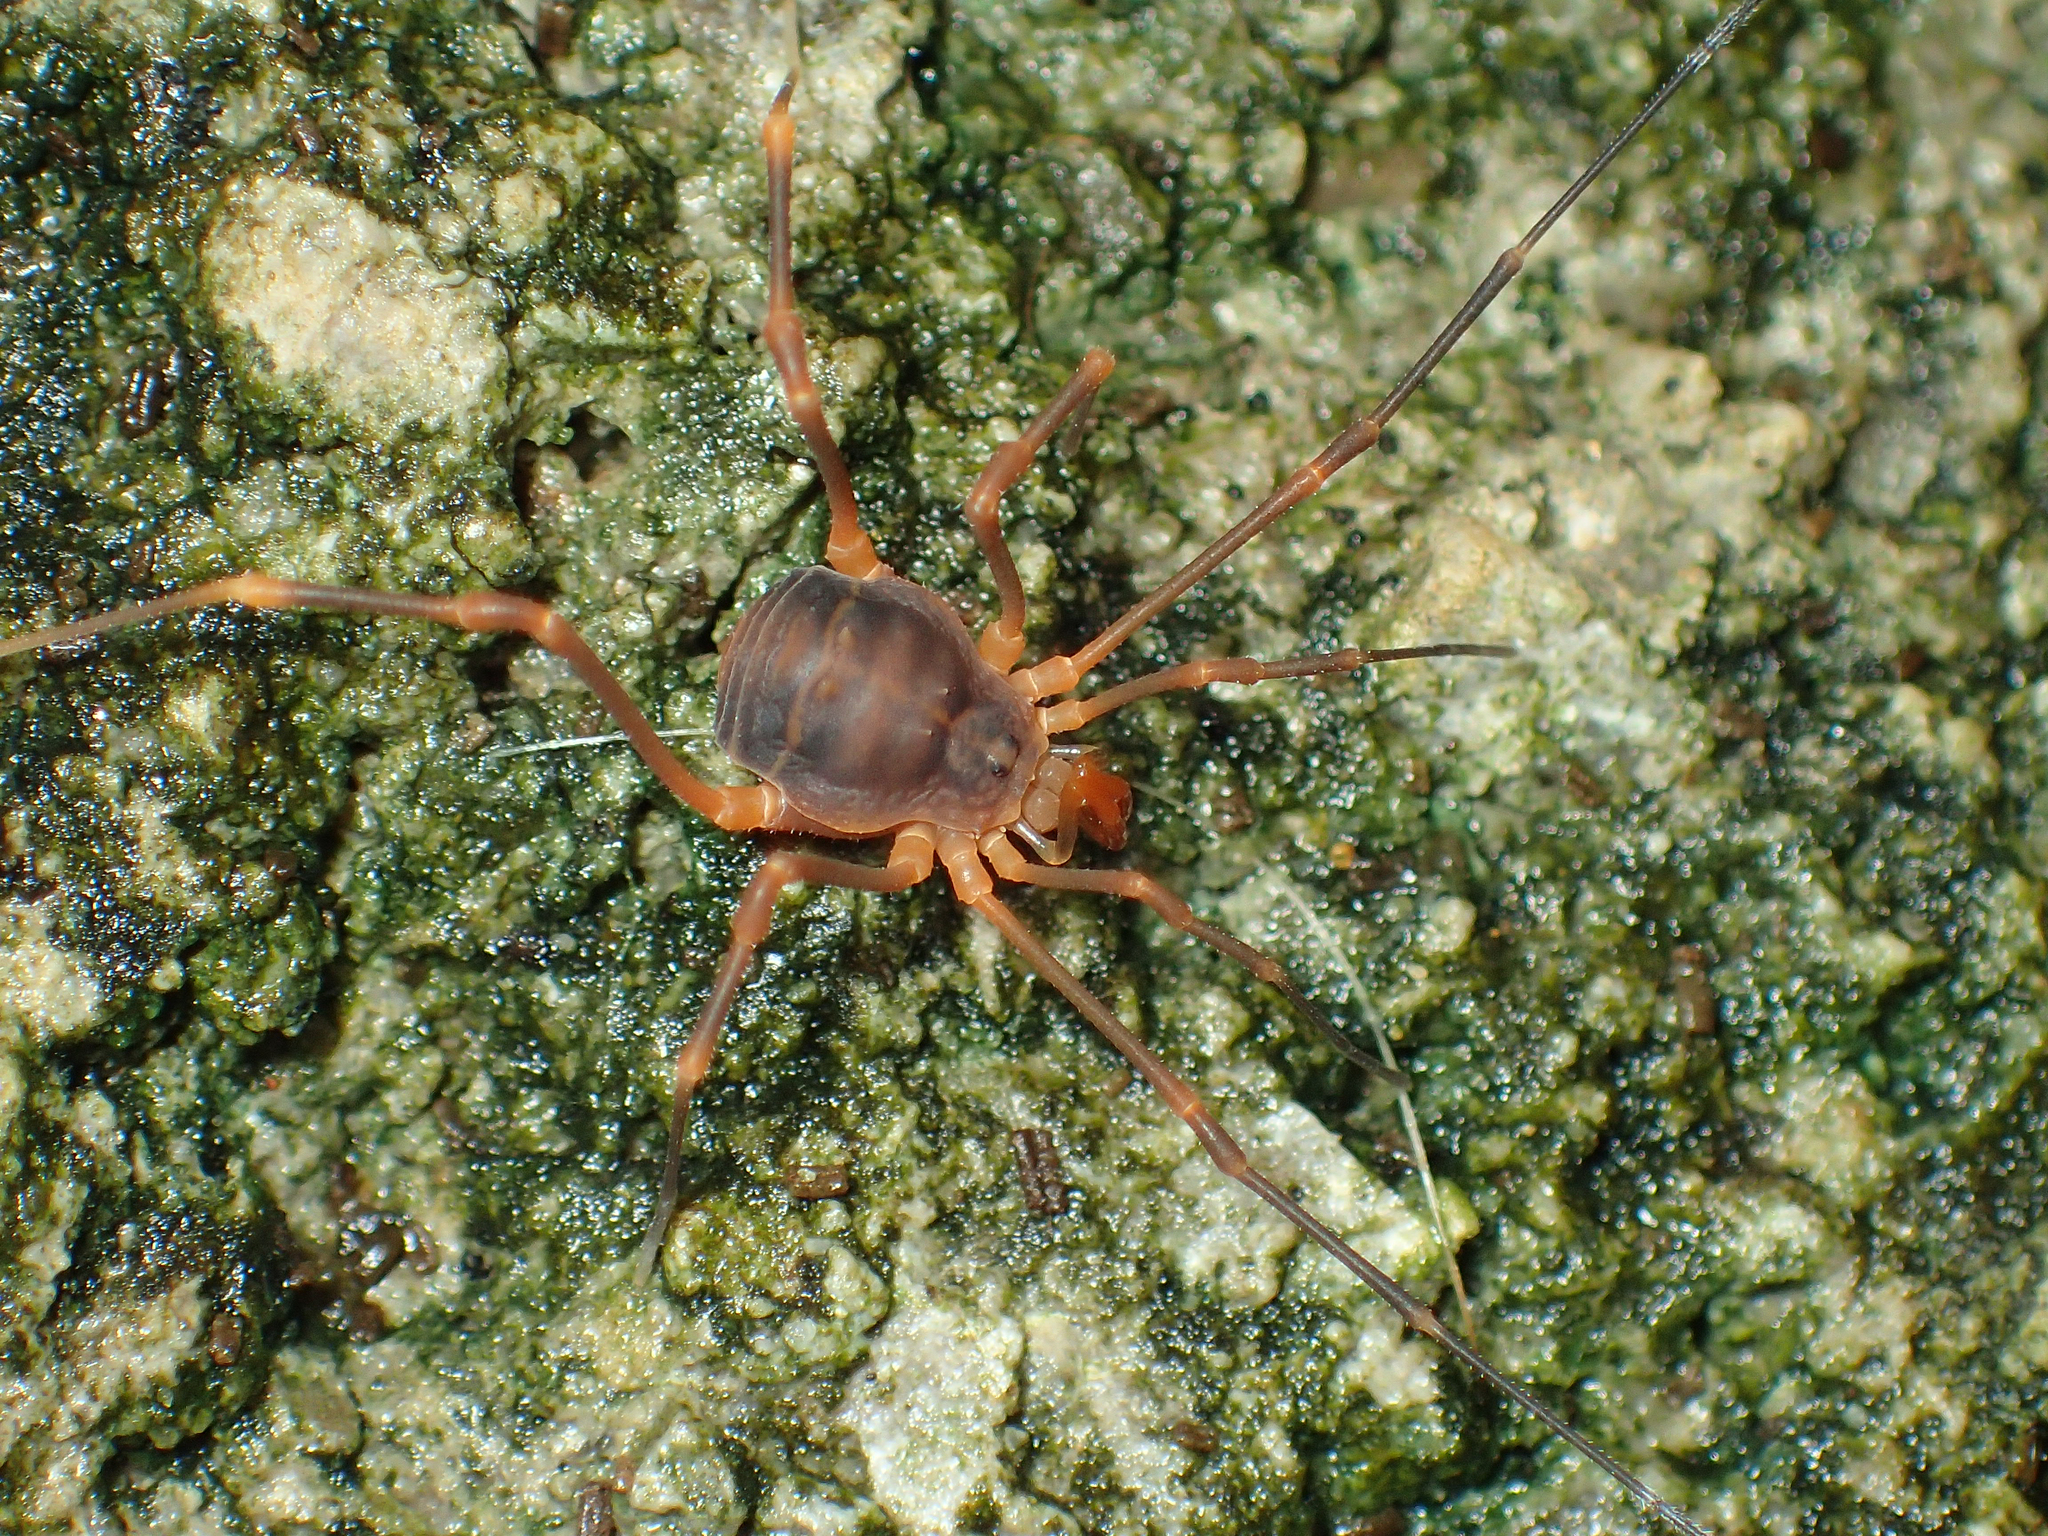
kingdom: Animalia
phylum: Arthropoda
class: Arachnida
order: Opiliones
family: Cosmetidae
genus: Libitioides
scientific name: Libitioides sayi
